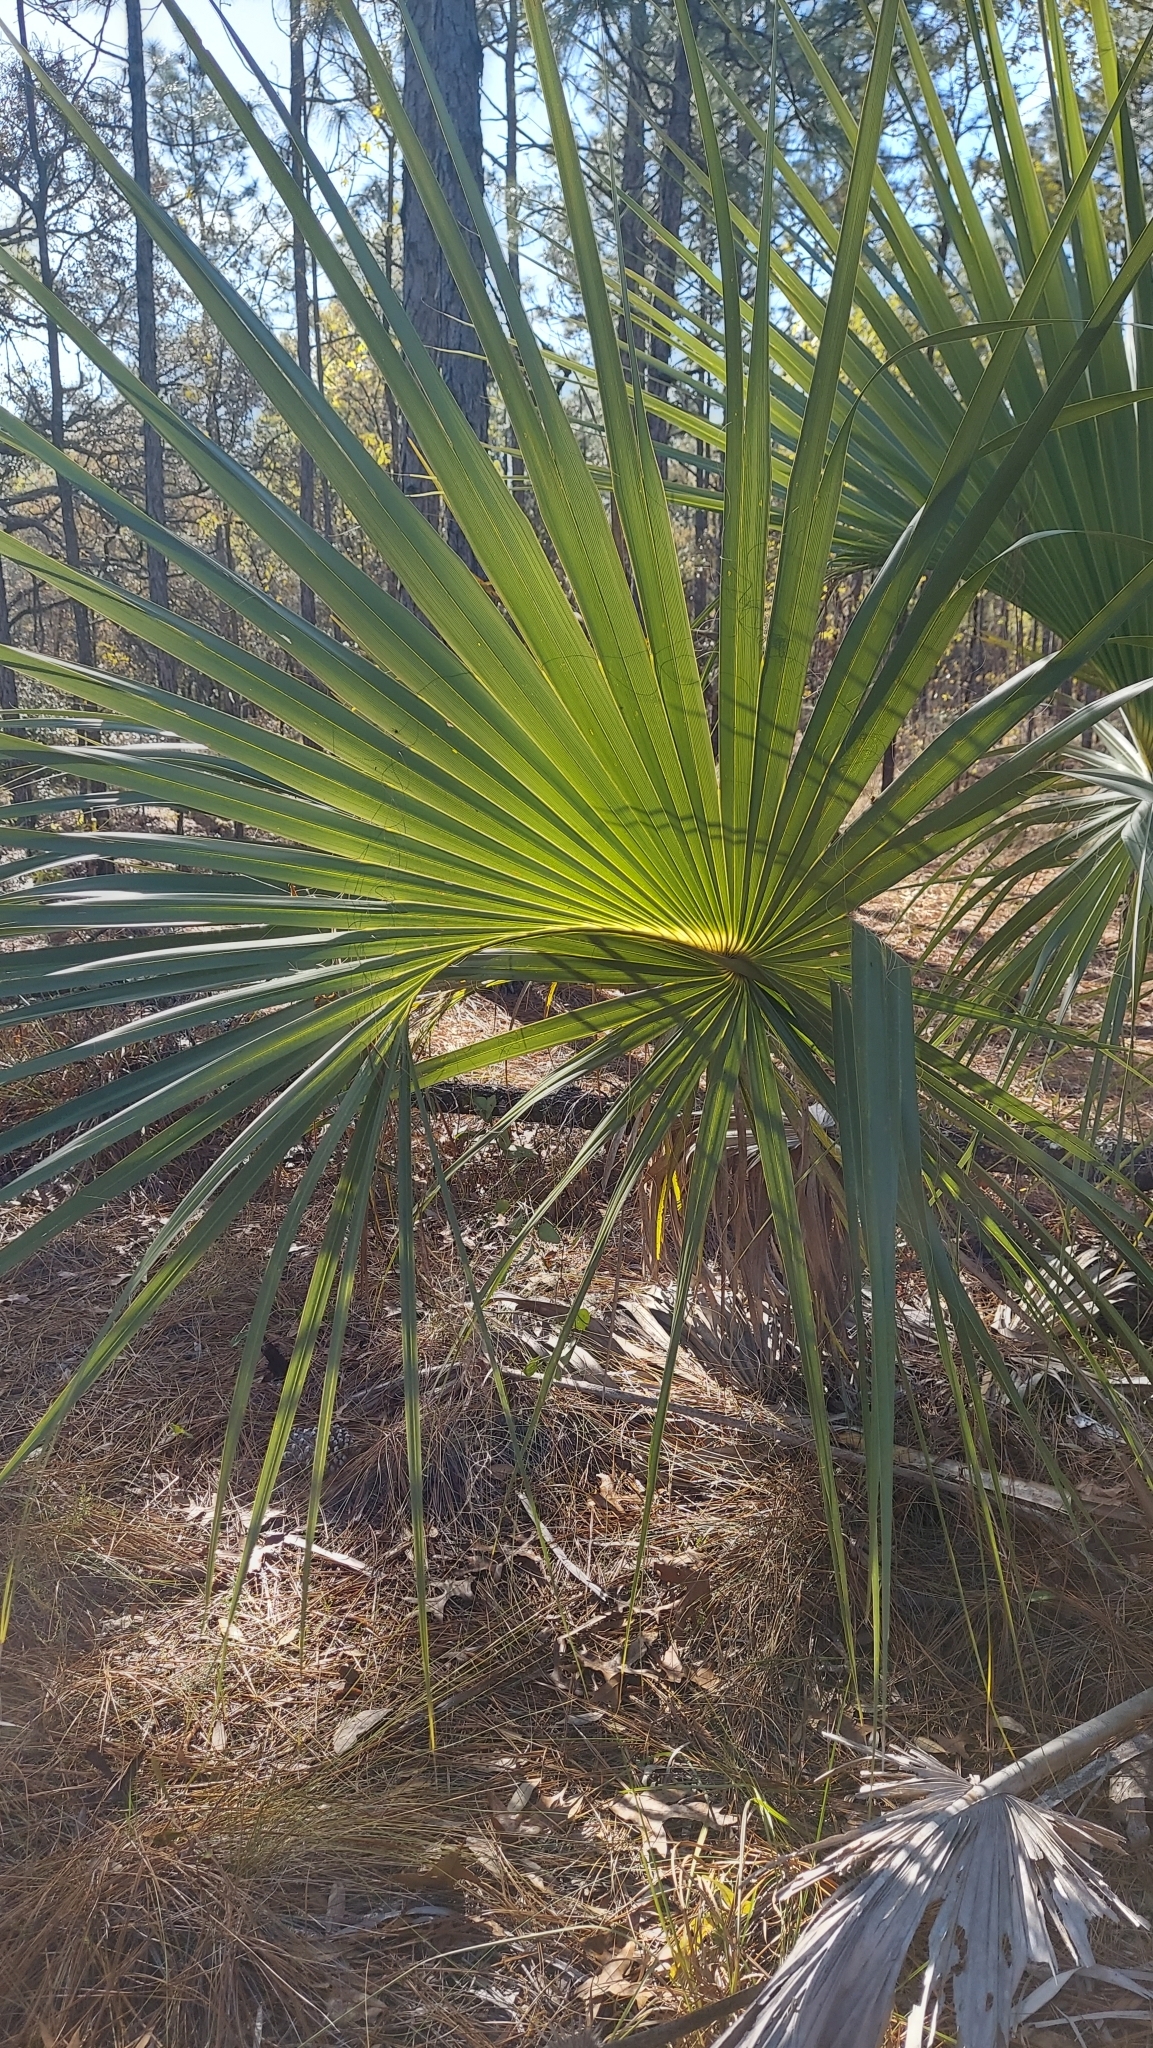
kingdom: Plantae
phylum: Tracheophyta
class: Liliopsida
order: Arecales
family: Arecaceae
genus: Sabal
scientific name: Sabal palmetto
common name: Blue palmetto
